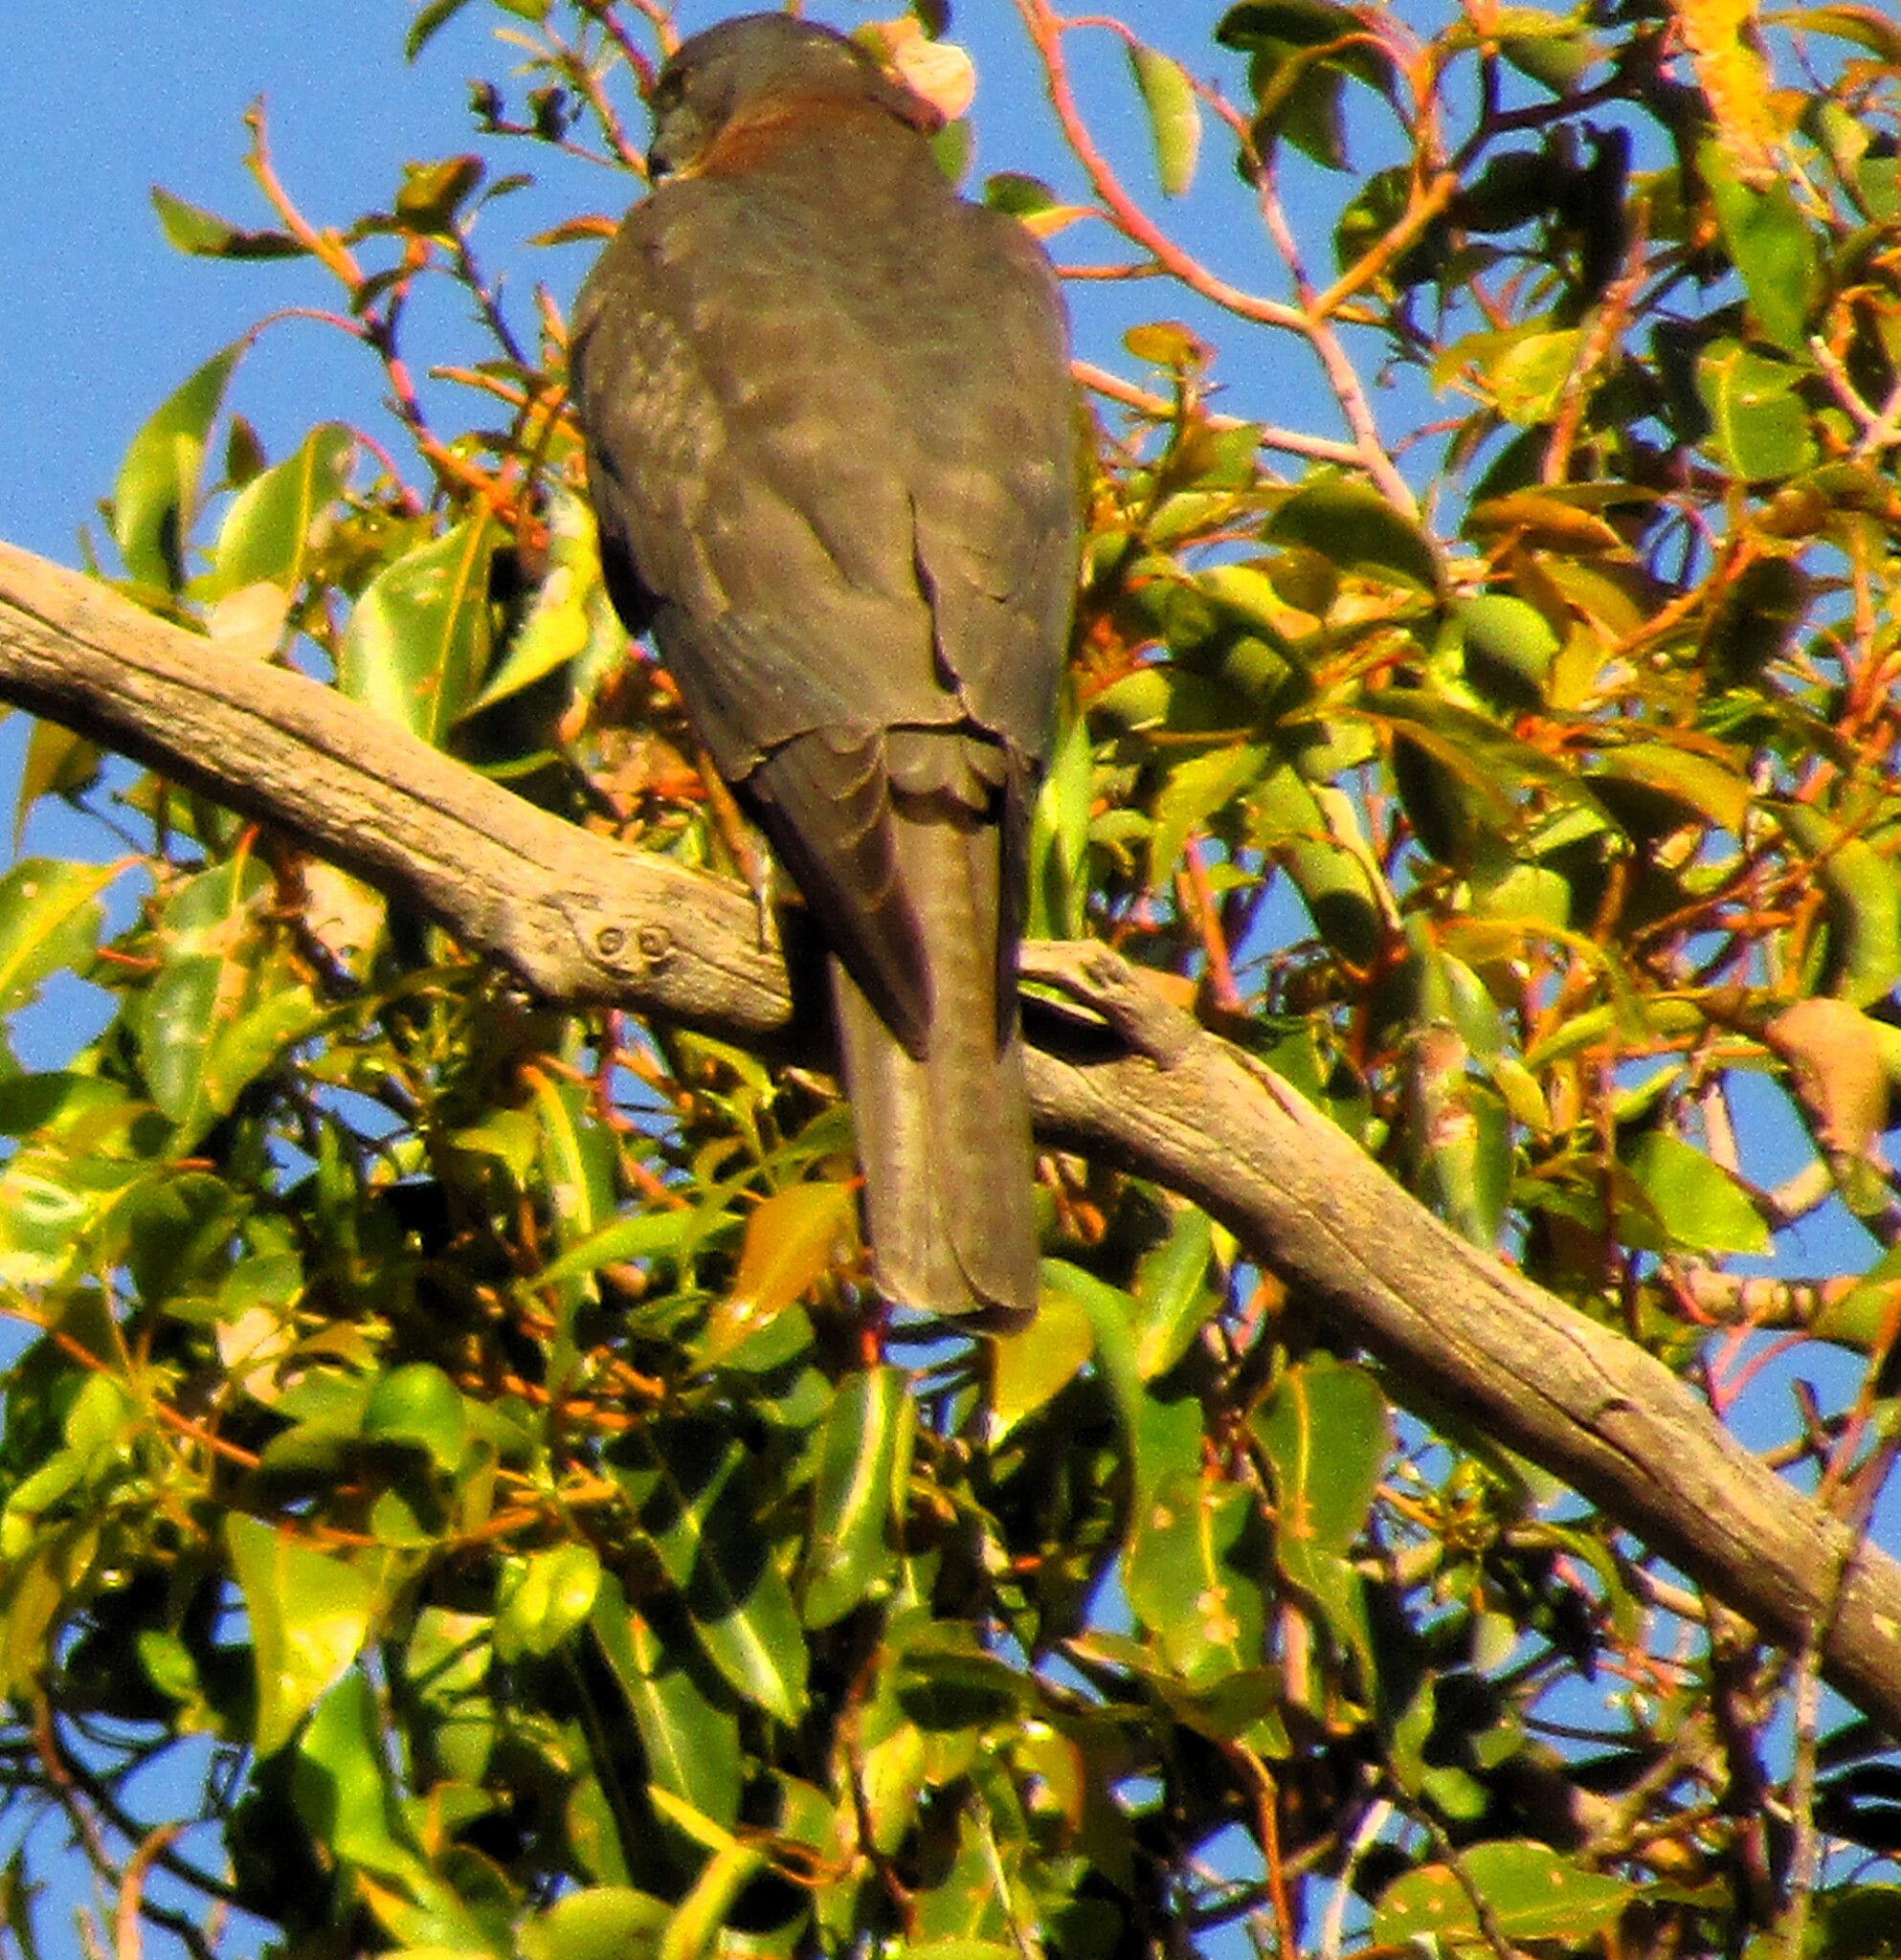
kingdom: Animalia
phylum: Chordata
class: Aves
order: Accipitriformes
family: Accipitridae
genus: Accipiter
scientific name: Accipiter cirrocephalus
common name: Collared sparrowhawk
